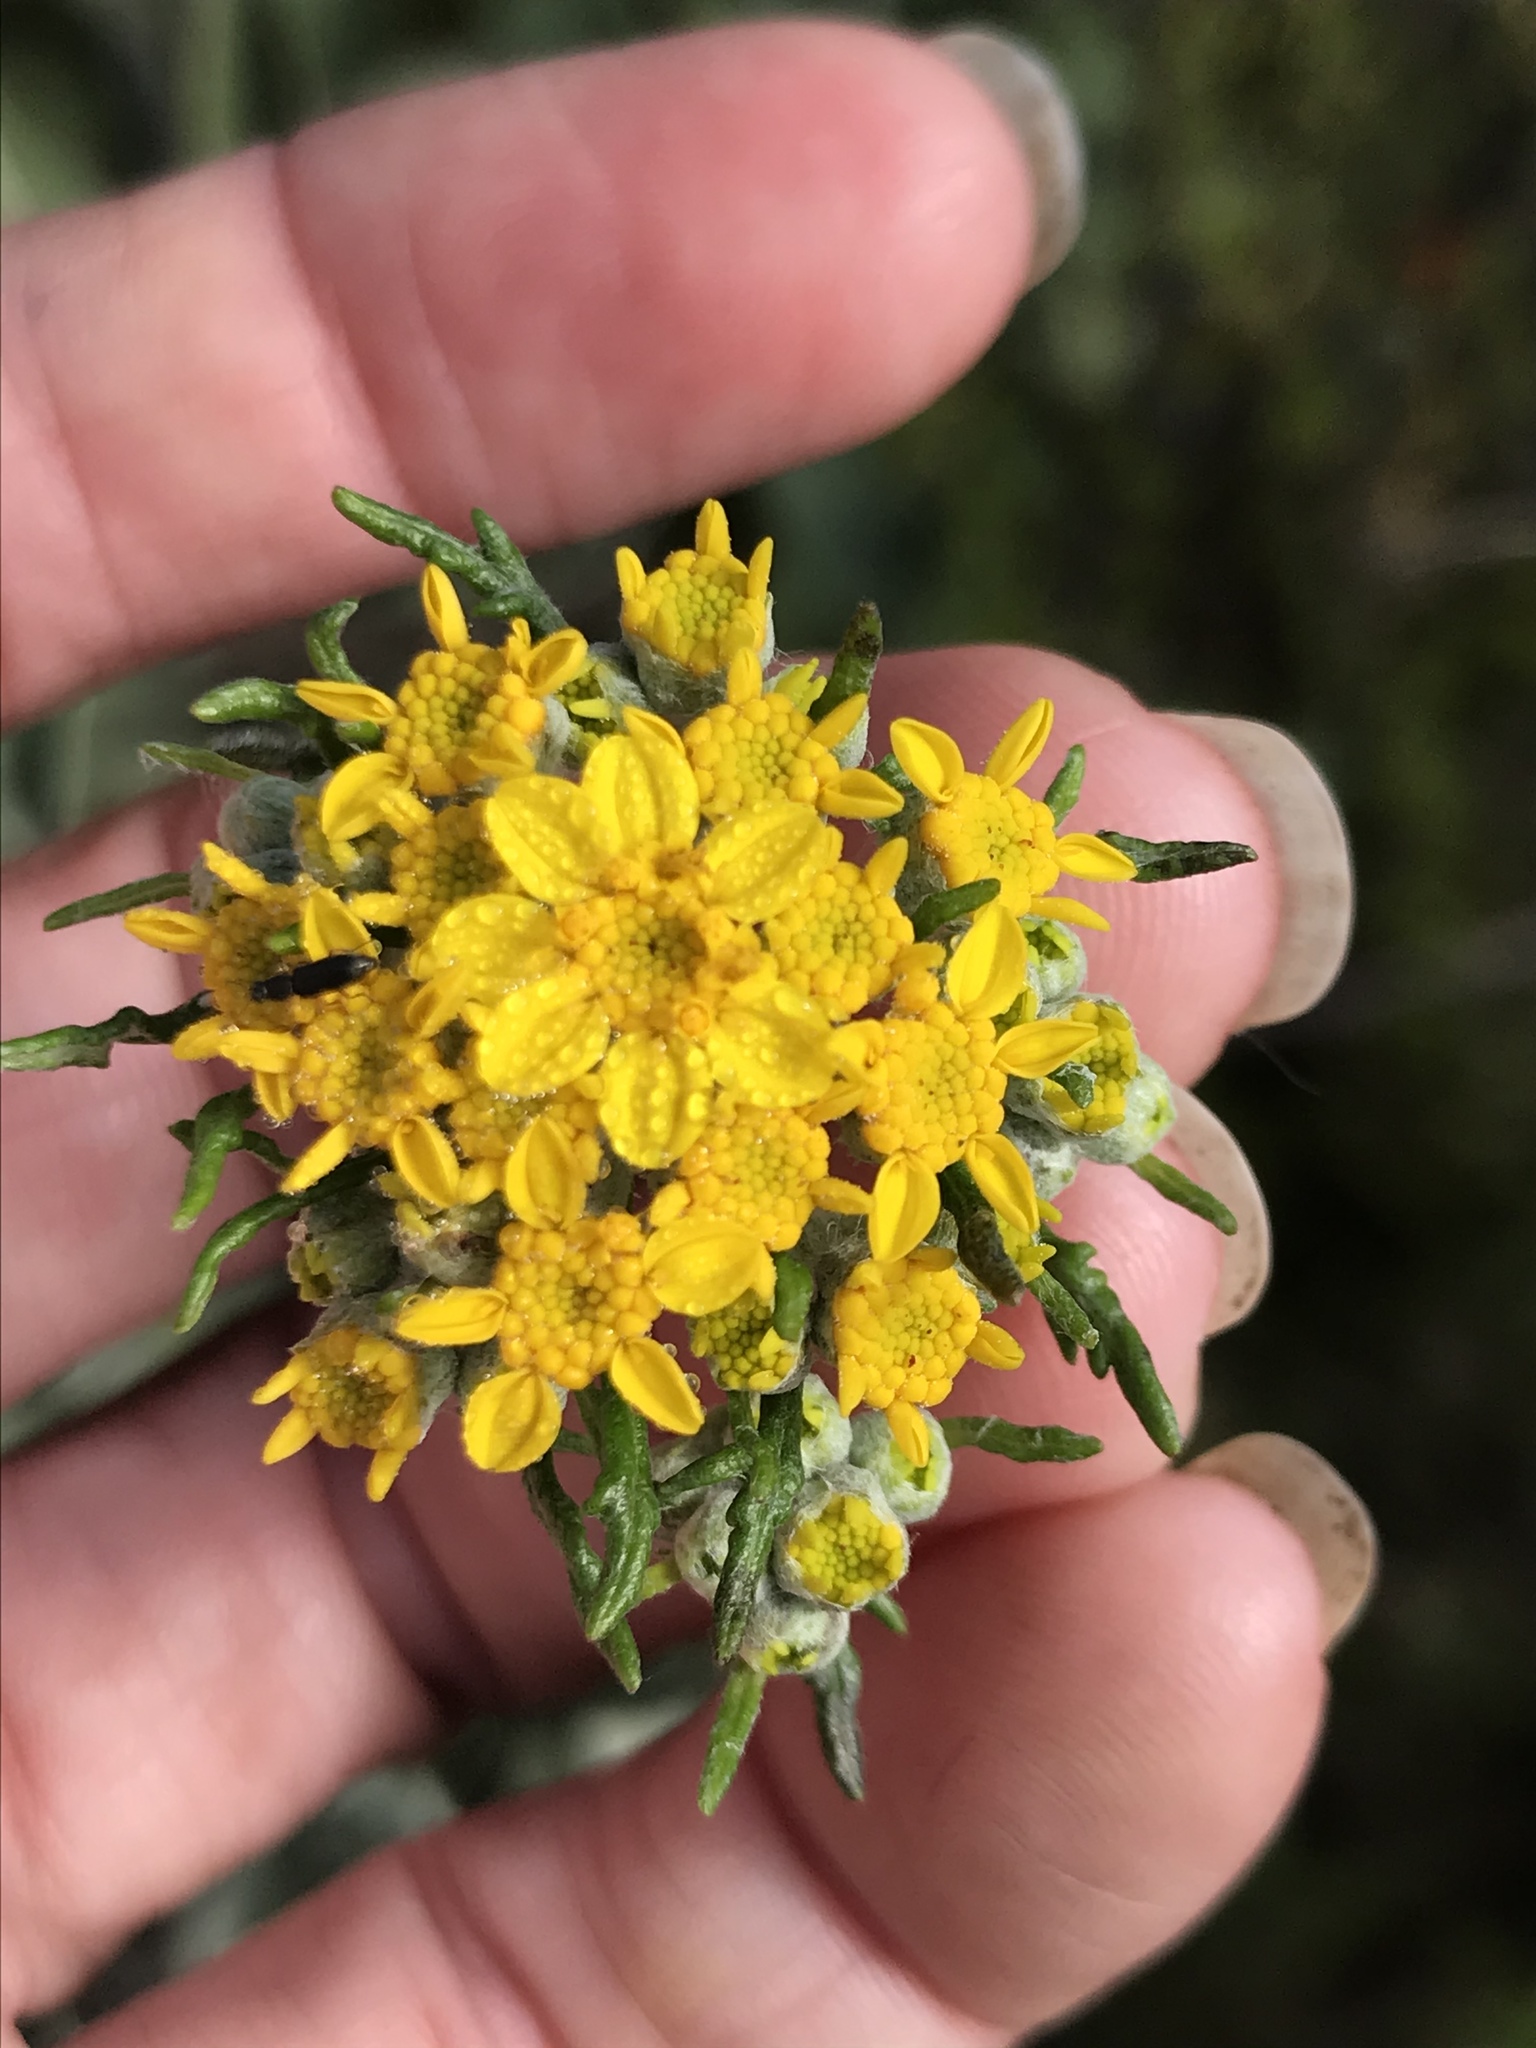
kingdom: Plantae
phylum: Tracheophyta
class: Magnoliopsida
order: Asterales
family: Asteraceae
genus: Eriophyllum
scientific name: Eriophyllum confertiflorum
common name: Golden-yarrow
